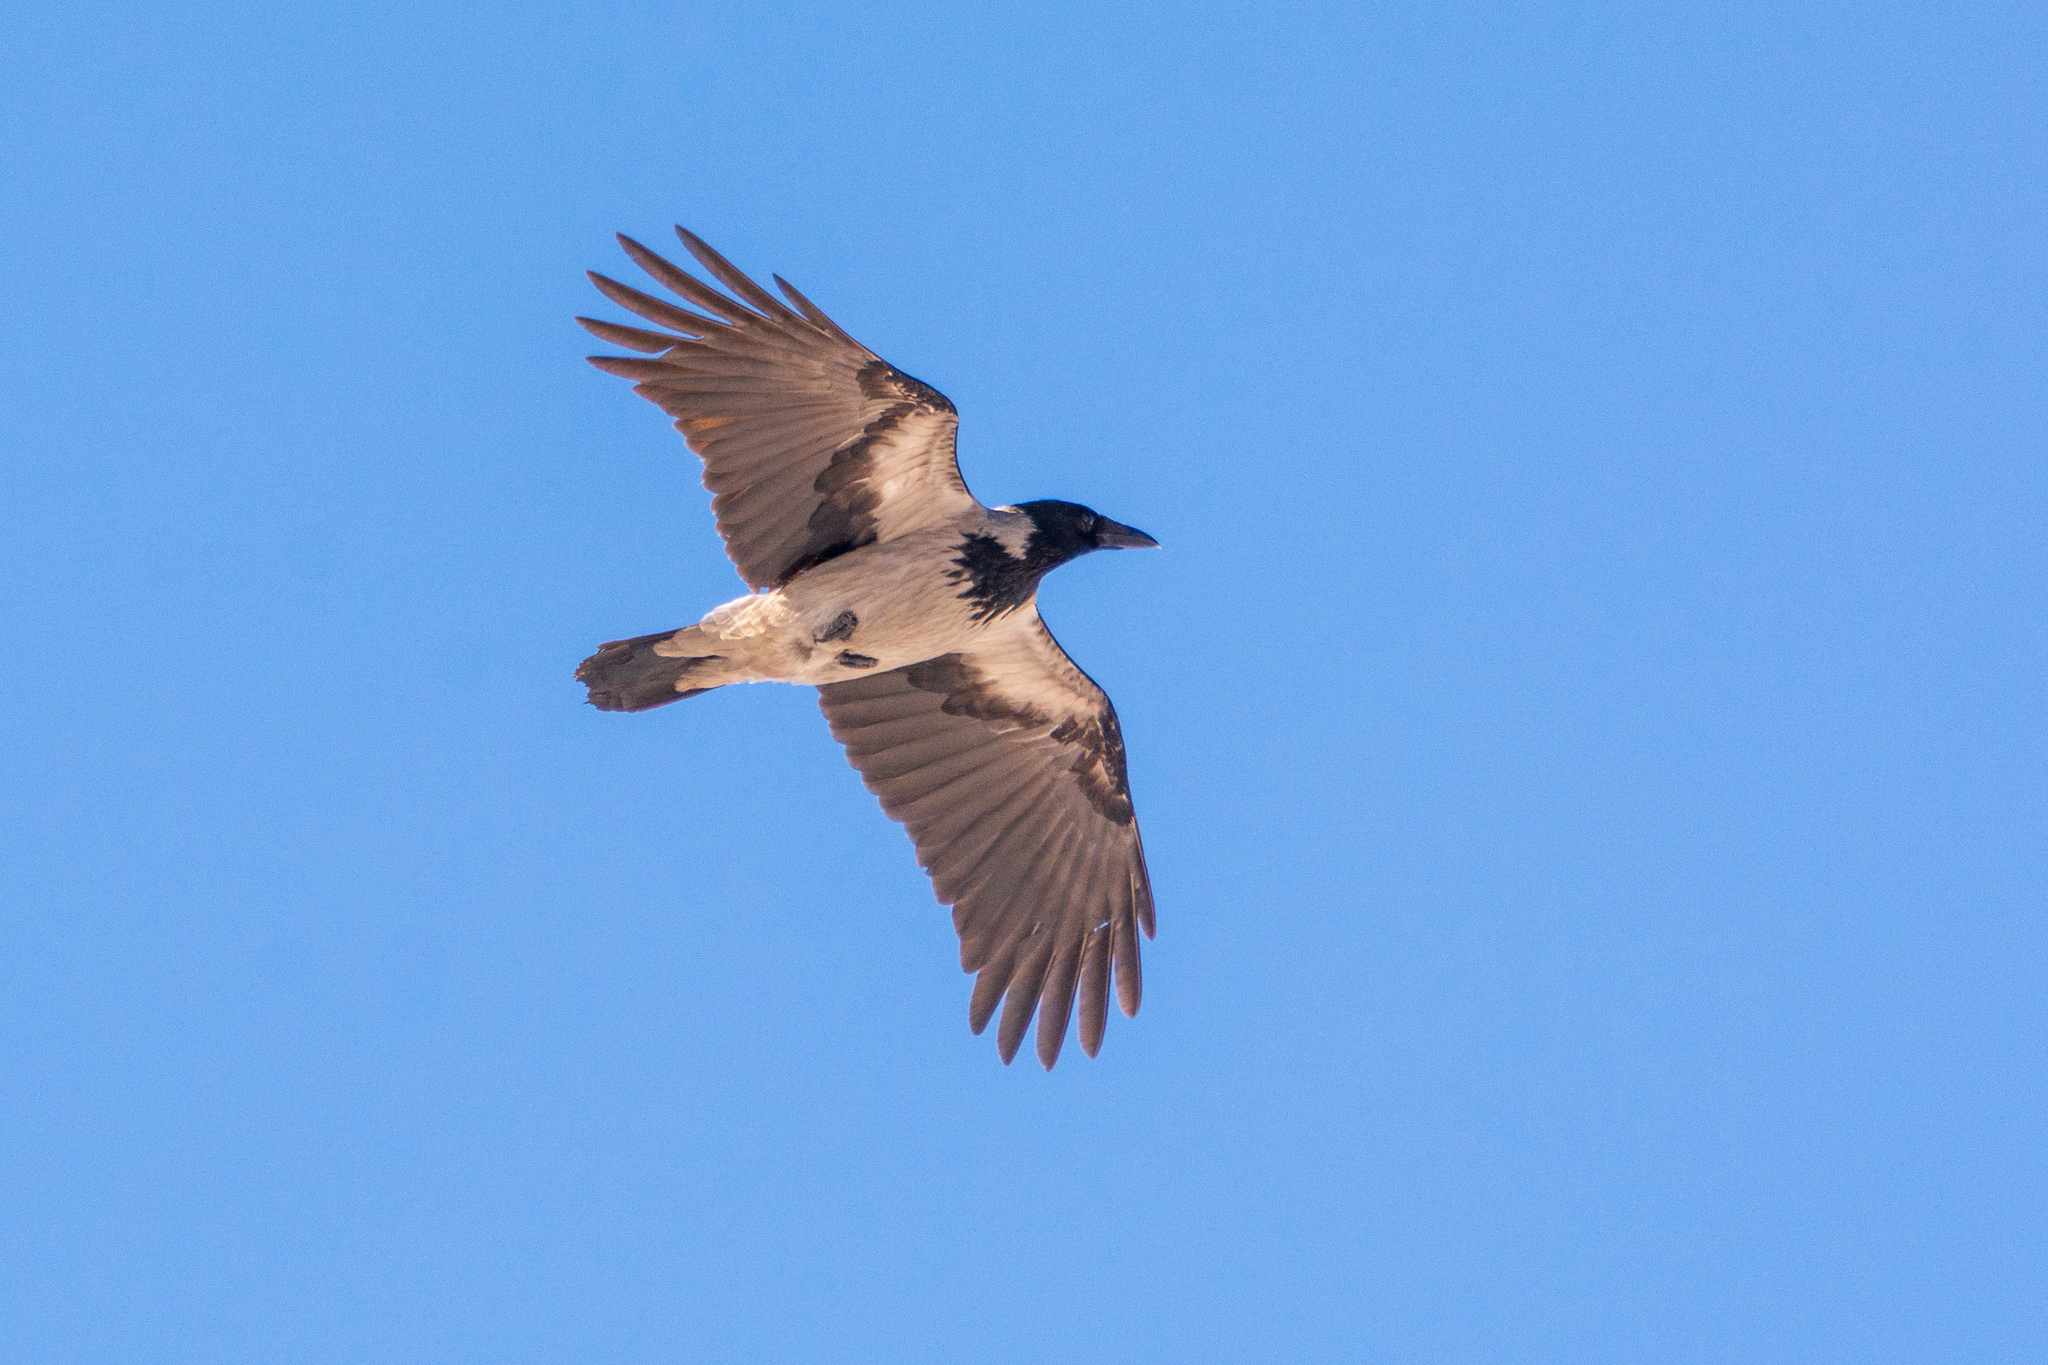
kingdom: Animalia
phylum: Chordata
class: Aves
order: Passeriformes
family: Corvidae
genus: Corvus
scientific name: Corvus cornix
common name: Hooded crow
